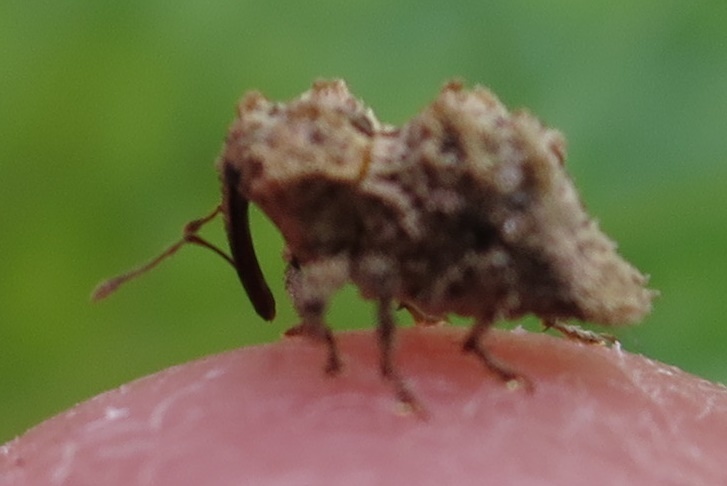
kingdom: Animalia
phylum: Arthropoda
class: Insecta
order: Coleoptera
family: Curculionidae
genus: Indecentia
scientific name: Indecentia nubila
